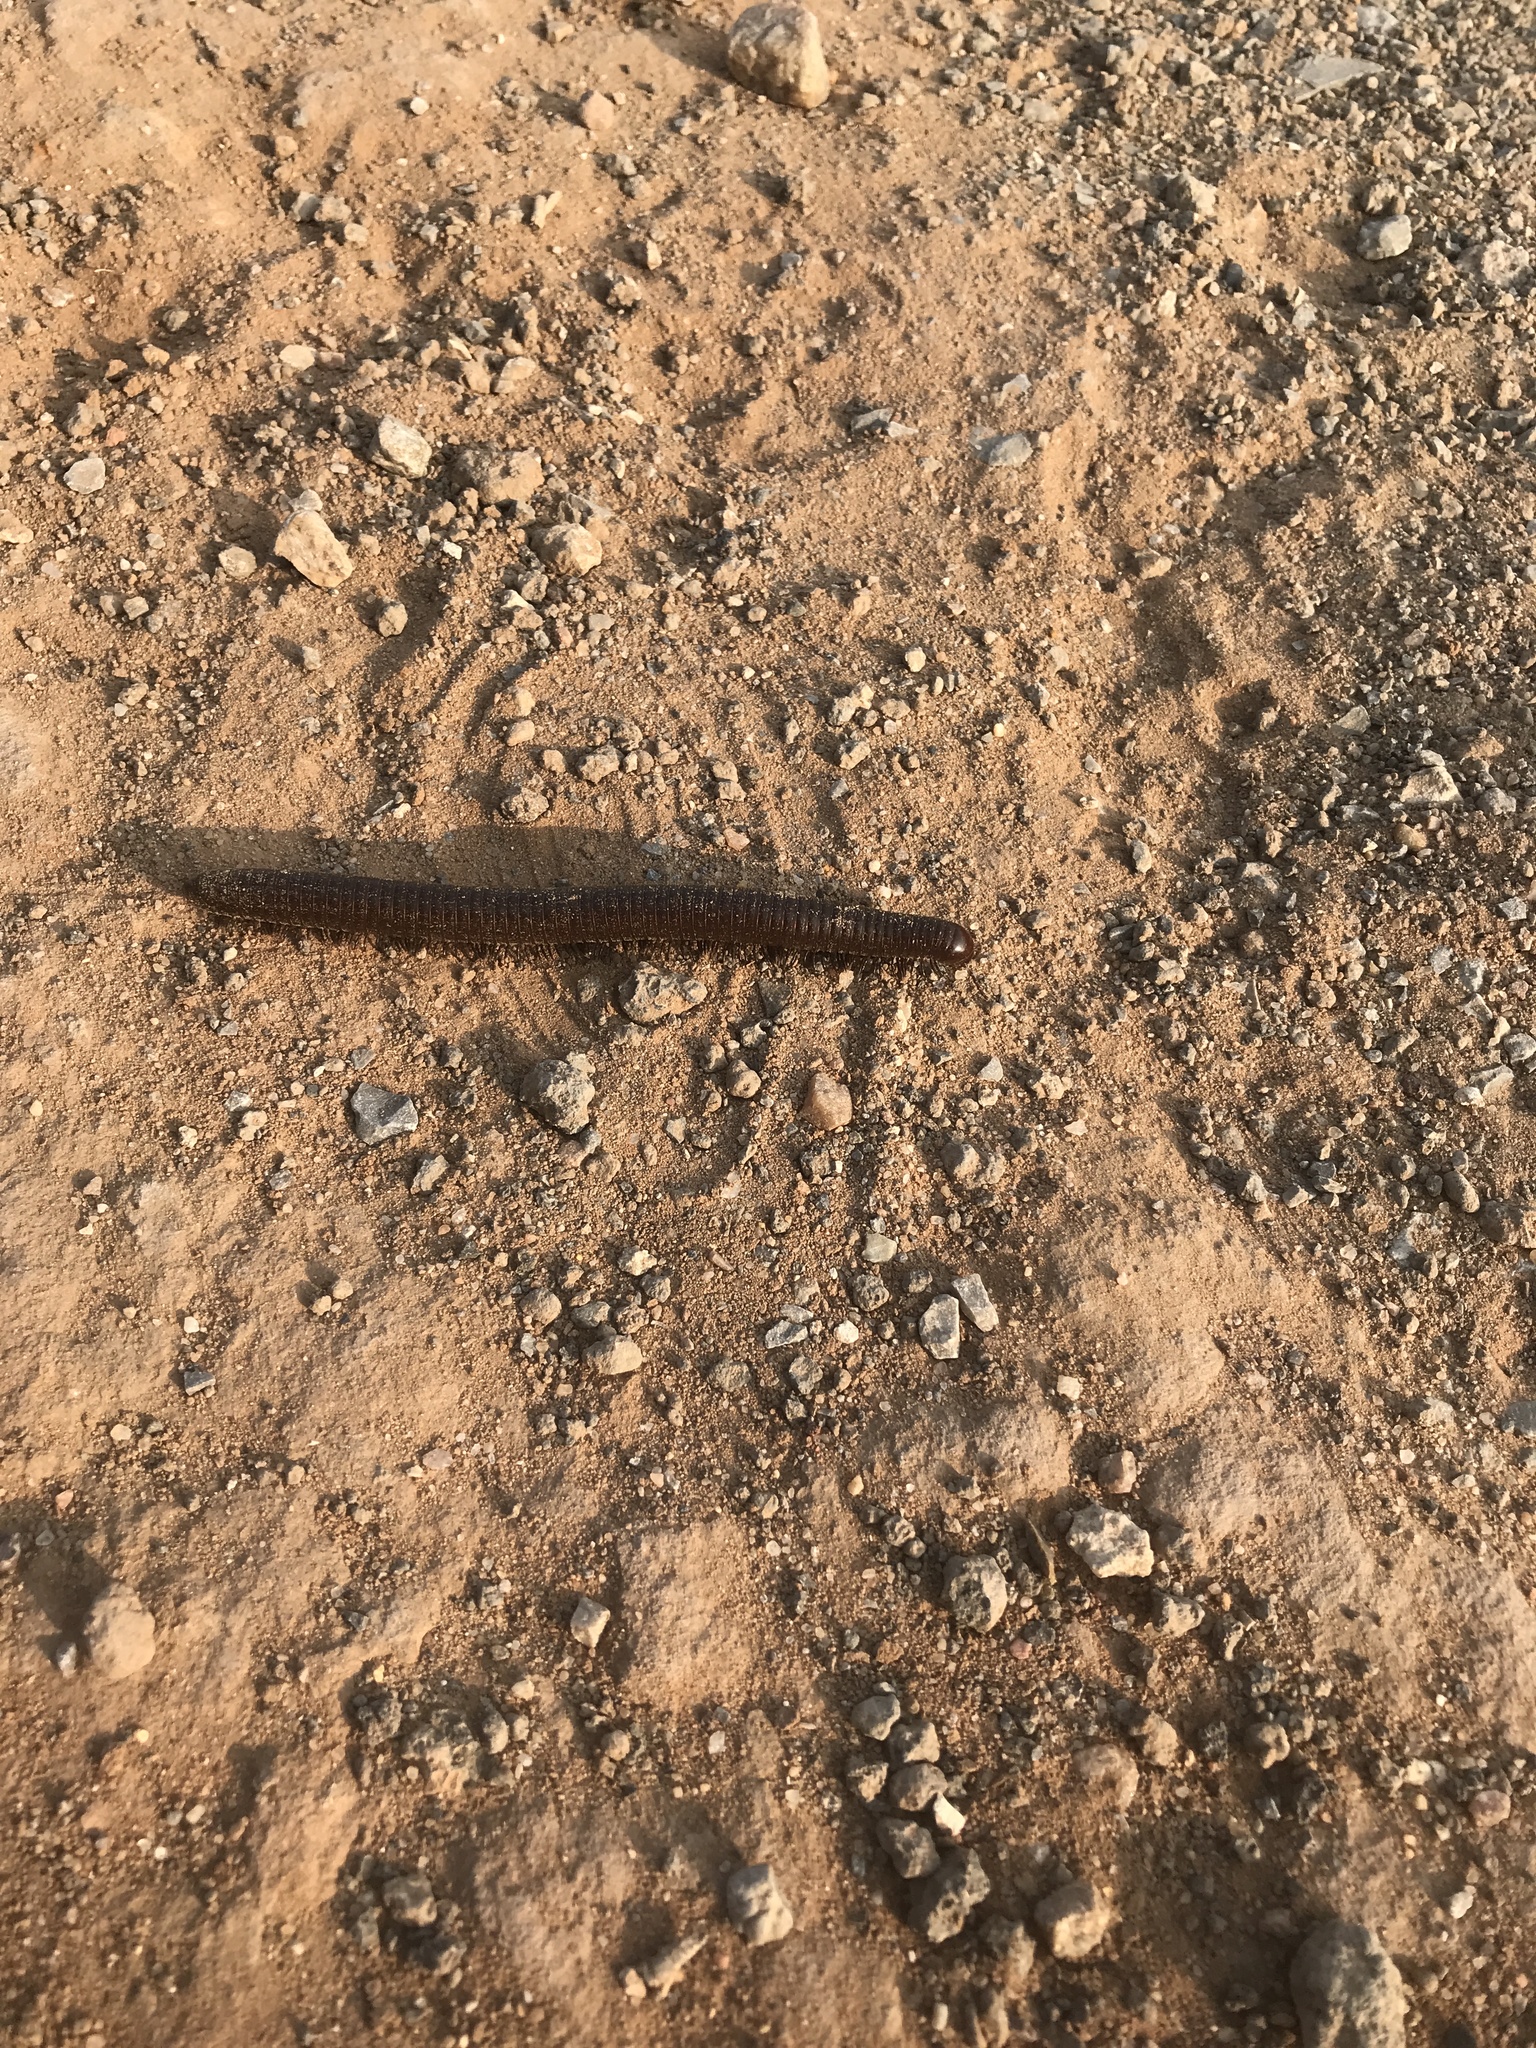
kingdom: Animalia
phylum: Arthropoda
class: Diplopoda
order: Spirostreptida
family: Spirostreptidae
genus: Orthoporus
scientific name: Orthoporus ornatus
